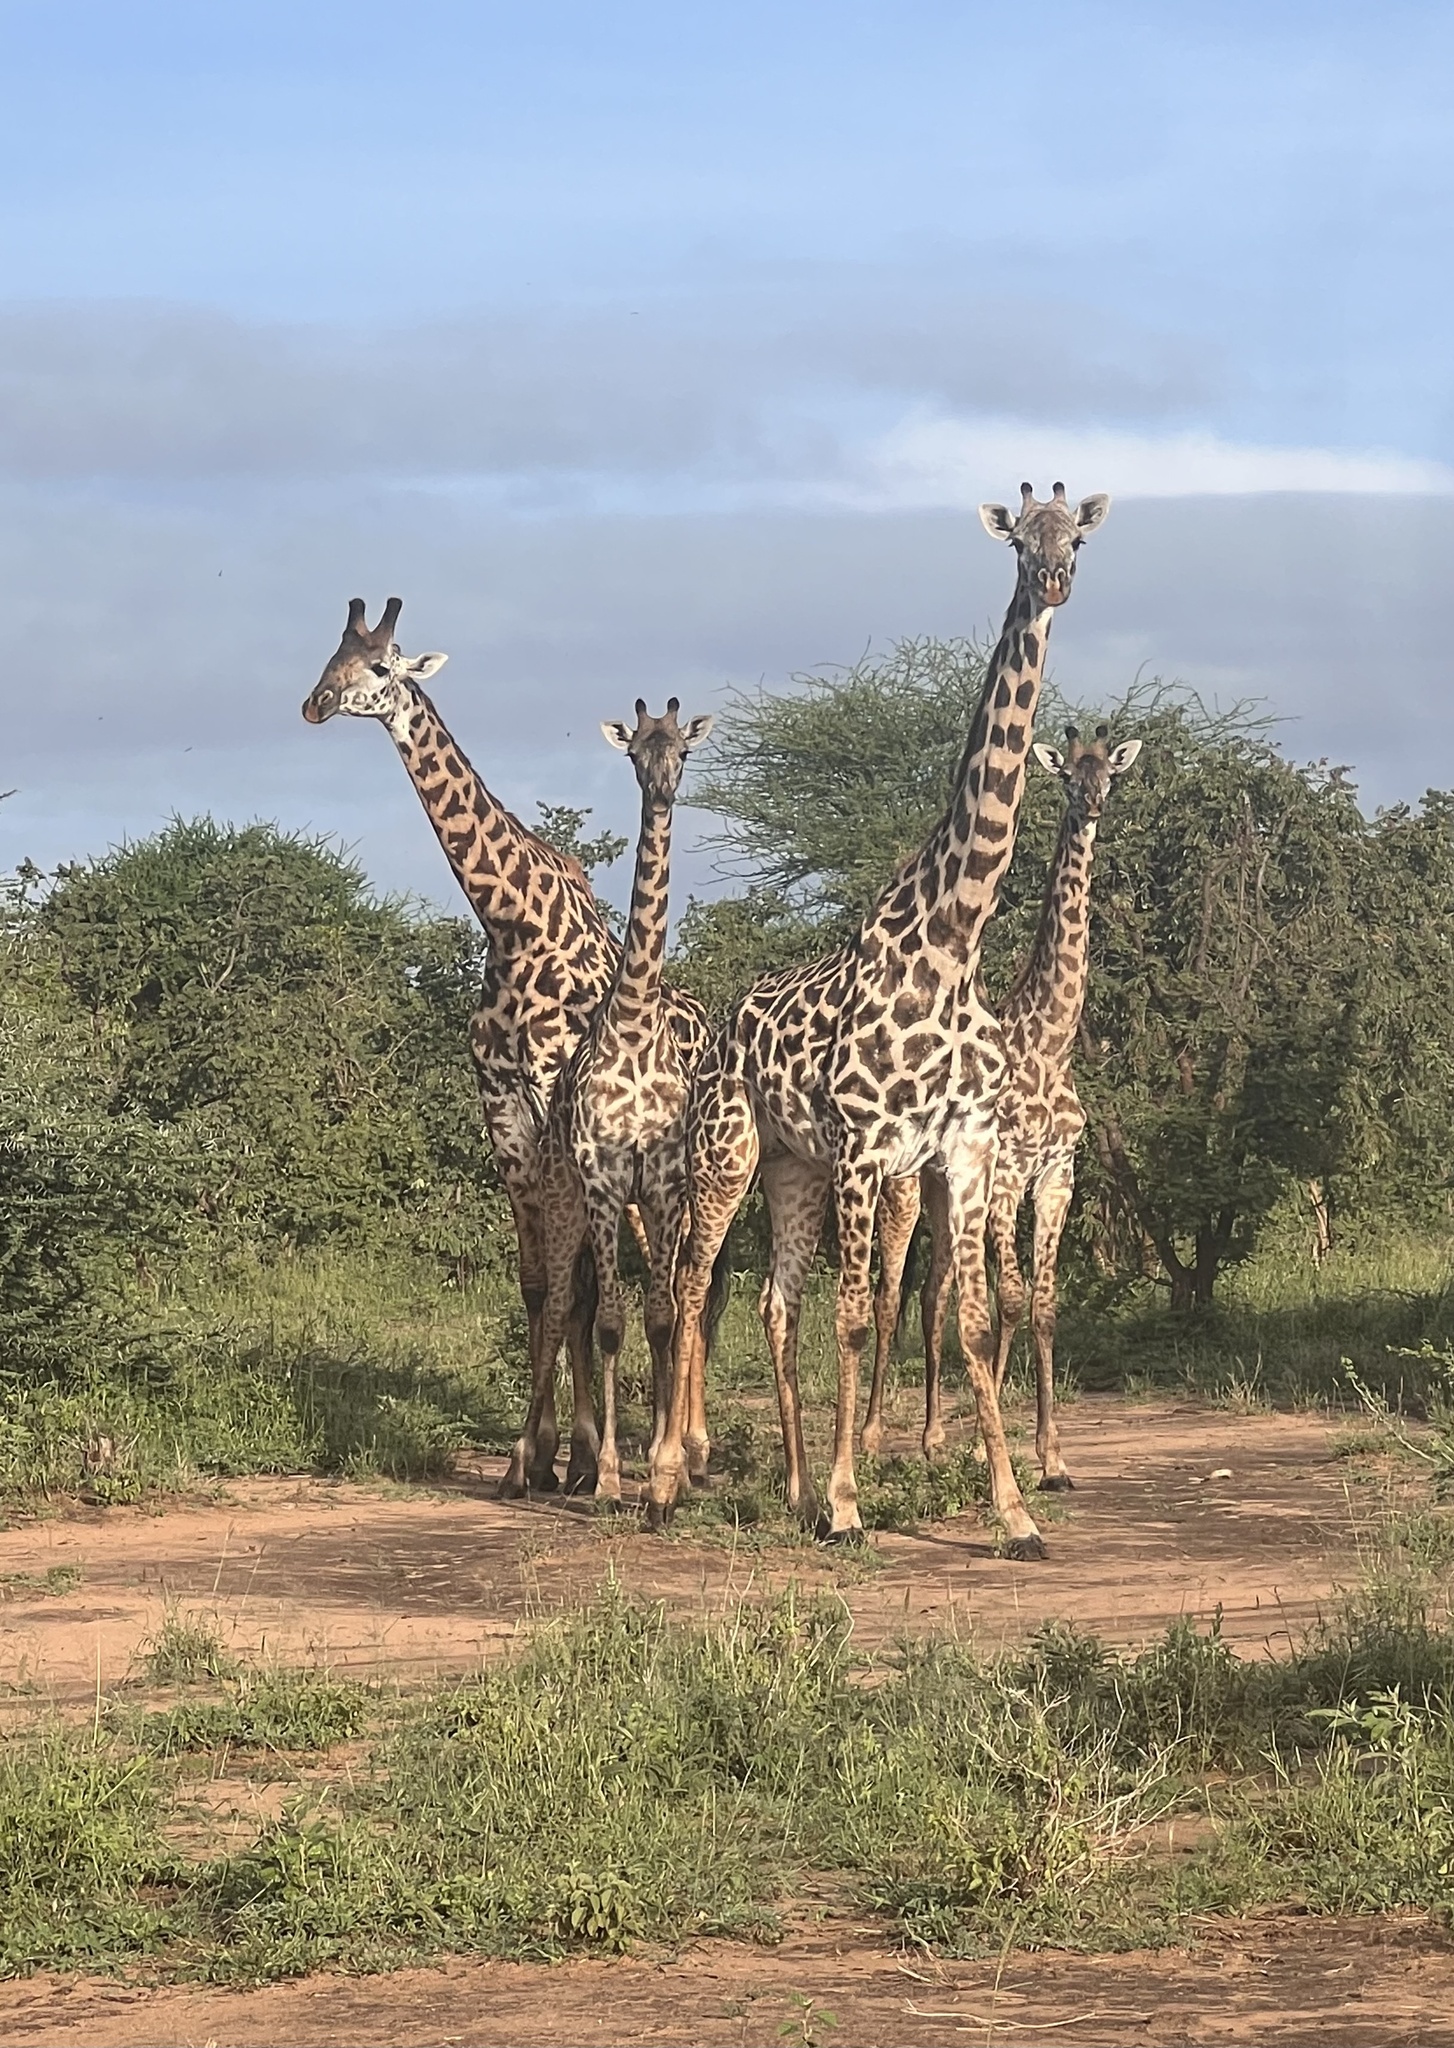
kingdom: Animalia
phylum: Chordata
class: Mammalia
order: Artiodactyla
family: Giraffidae
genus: Giraffa
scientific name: Giraffa tippelskirchi
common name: Masai giraffe
